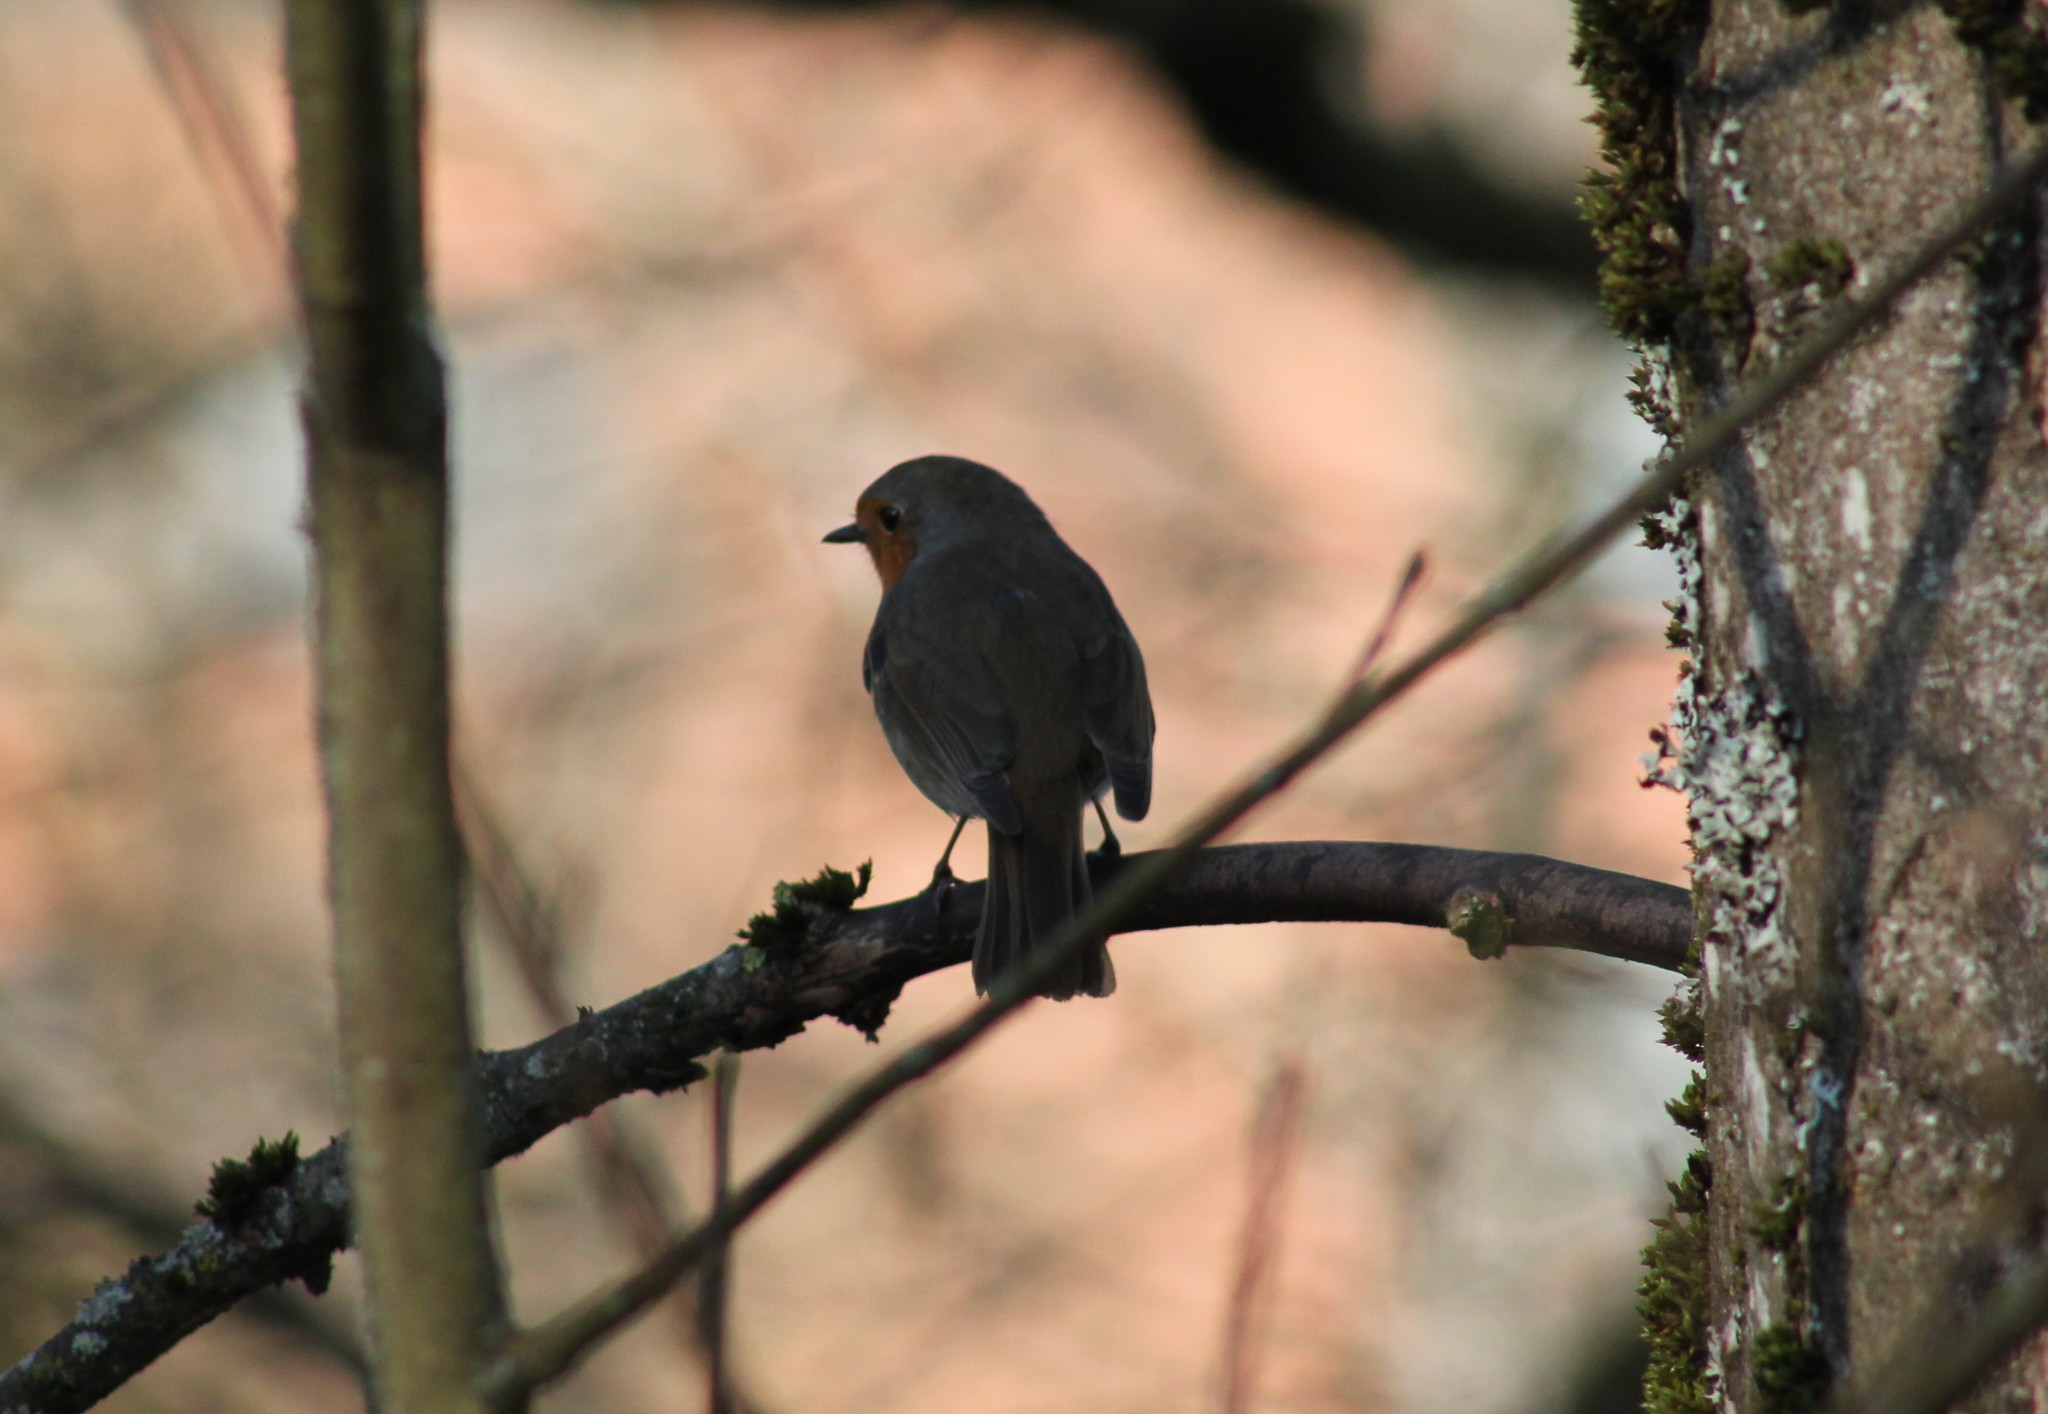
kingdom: Animalia
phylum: Chordata
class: Aves
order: Passeriformes
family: Muscicapidae
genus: Erithacus
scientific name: Erithacus rubecula
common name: European robin
